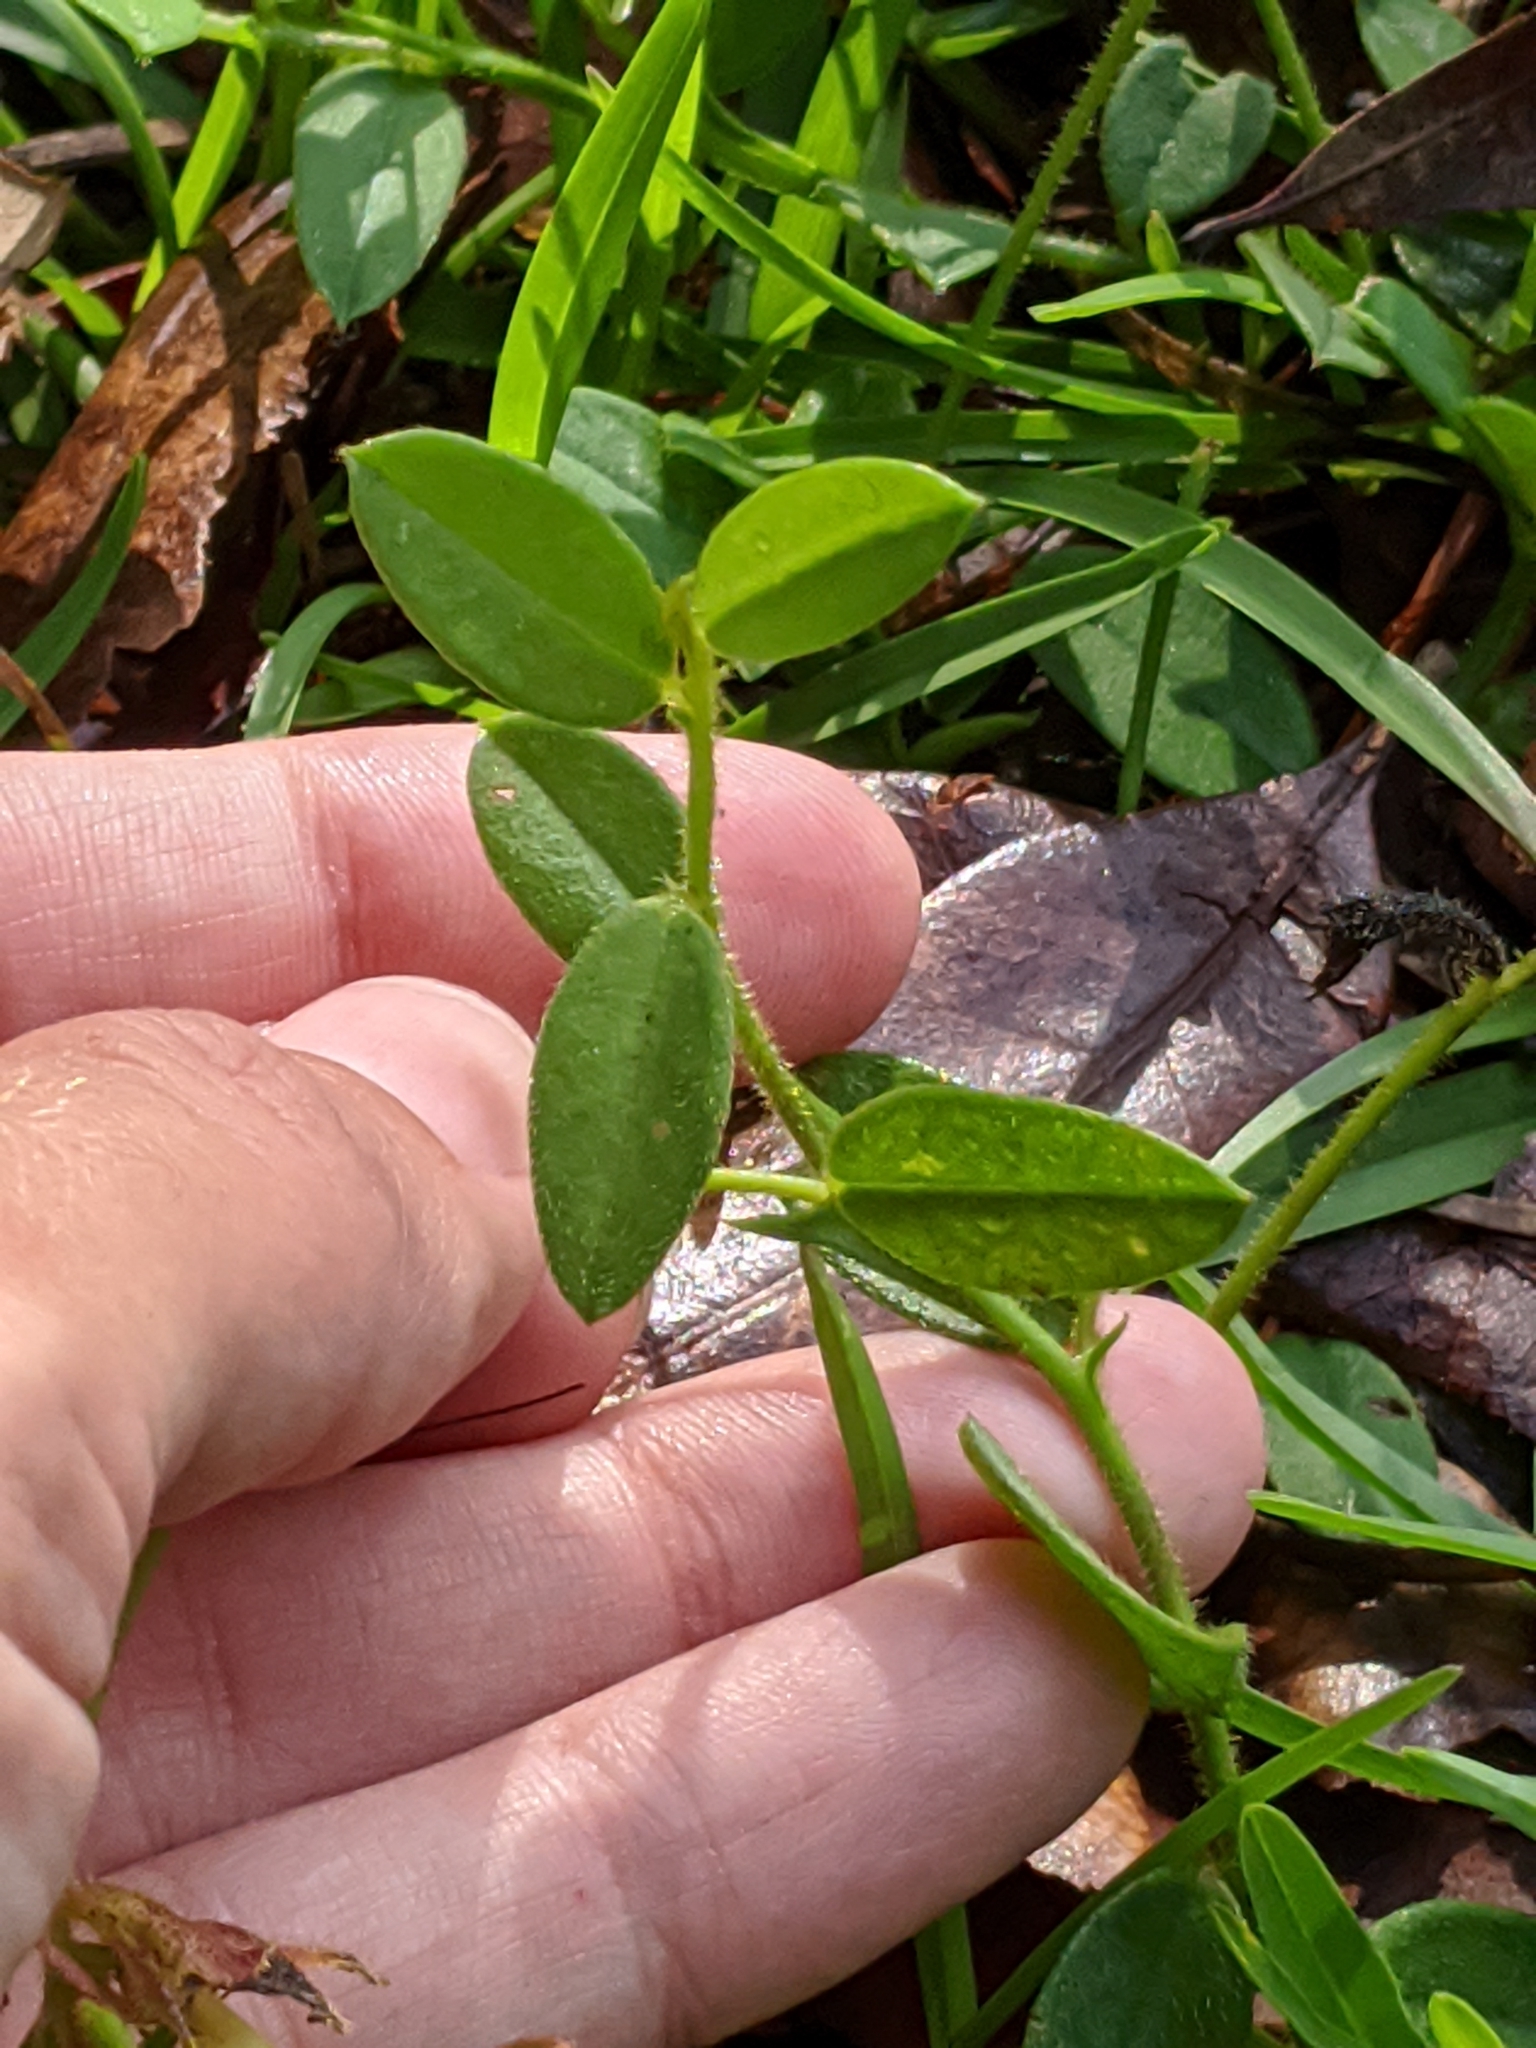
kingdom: Plantae
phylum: Tracheophyta
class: Magnoliopsida
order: Fabales
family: Fabaceae
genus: Crotalaria
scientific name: Crotalaria rotundifolia
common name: Prostrate rattlebox
